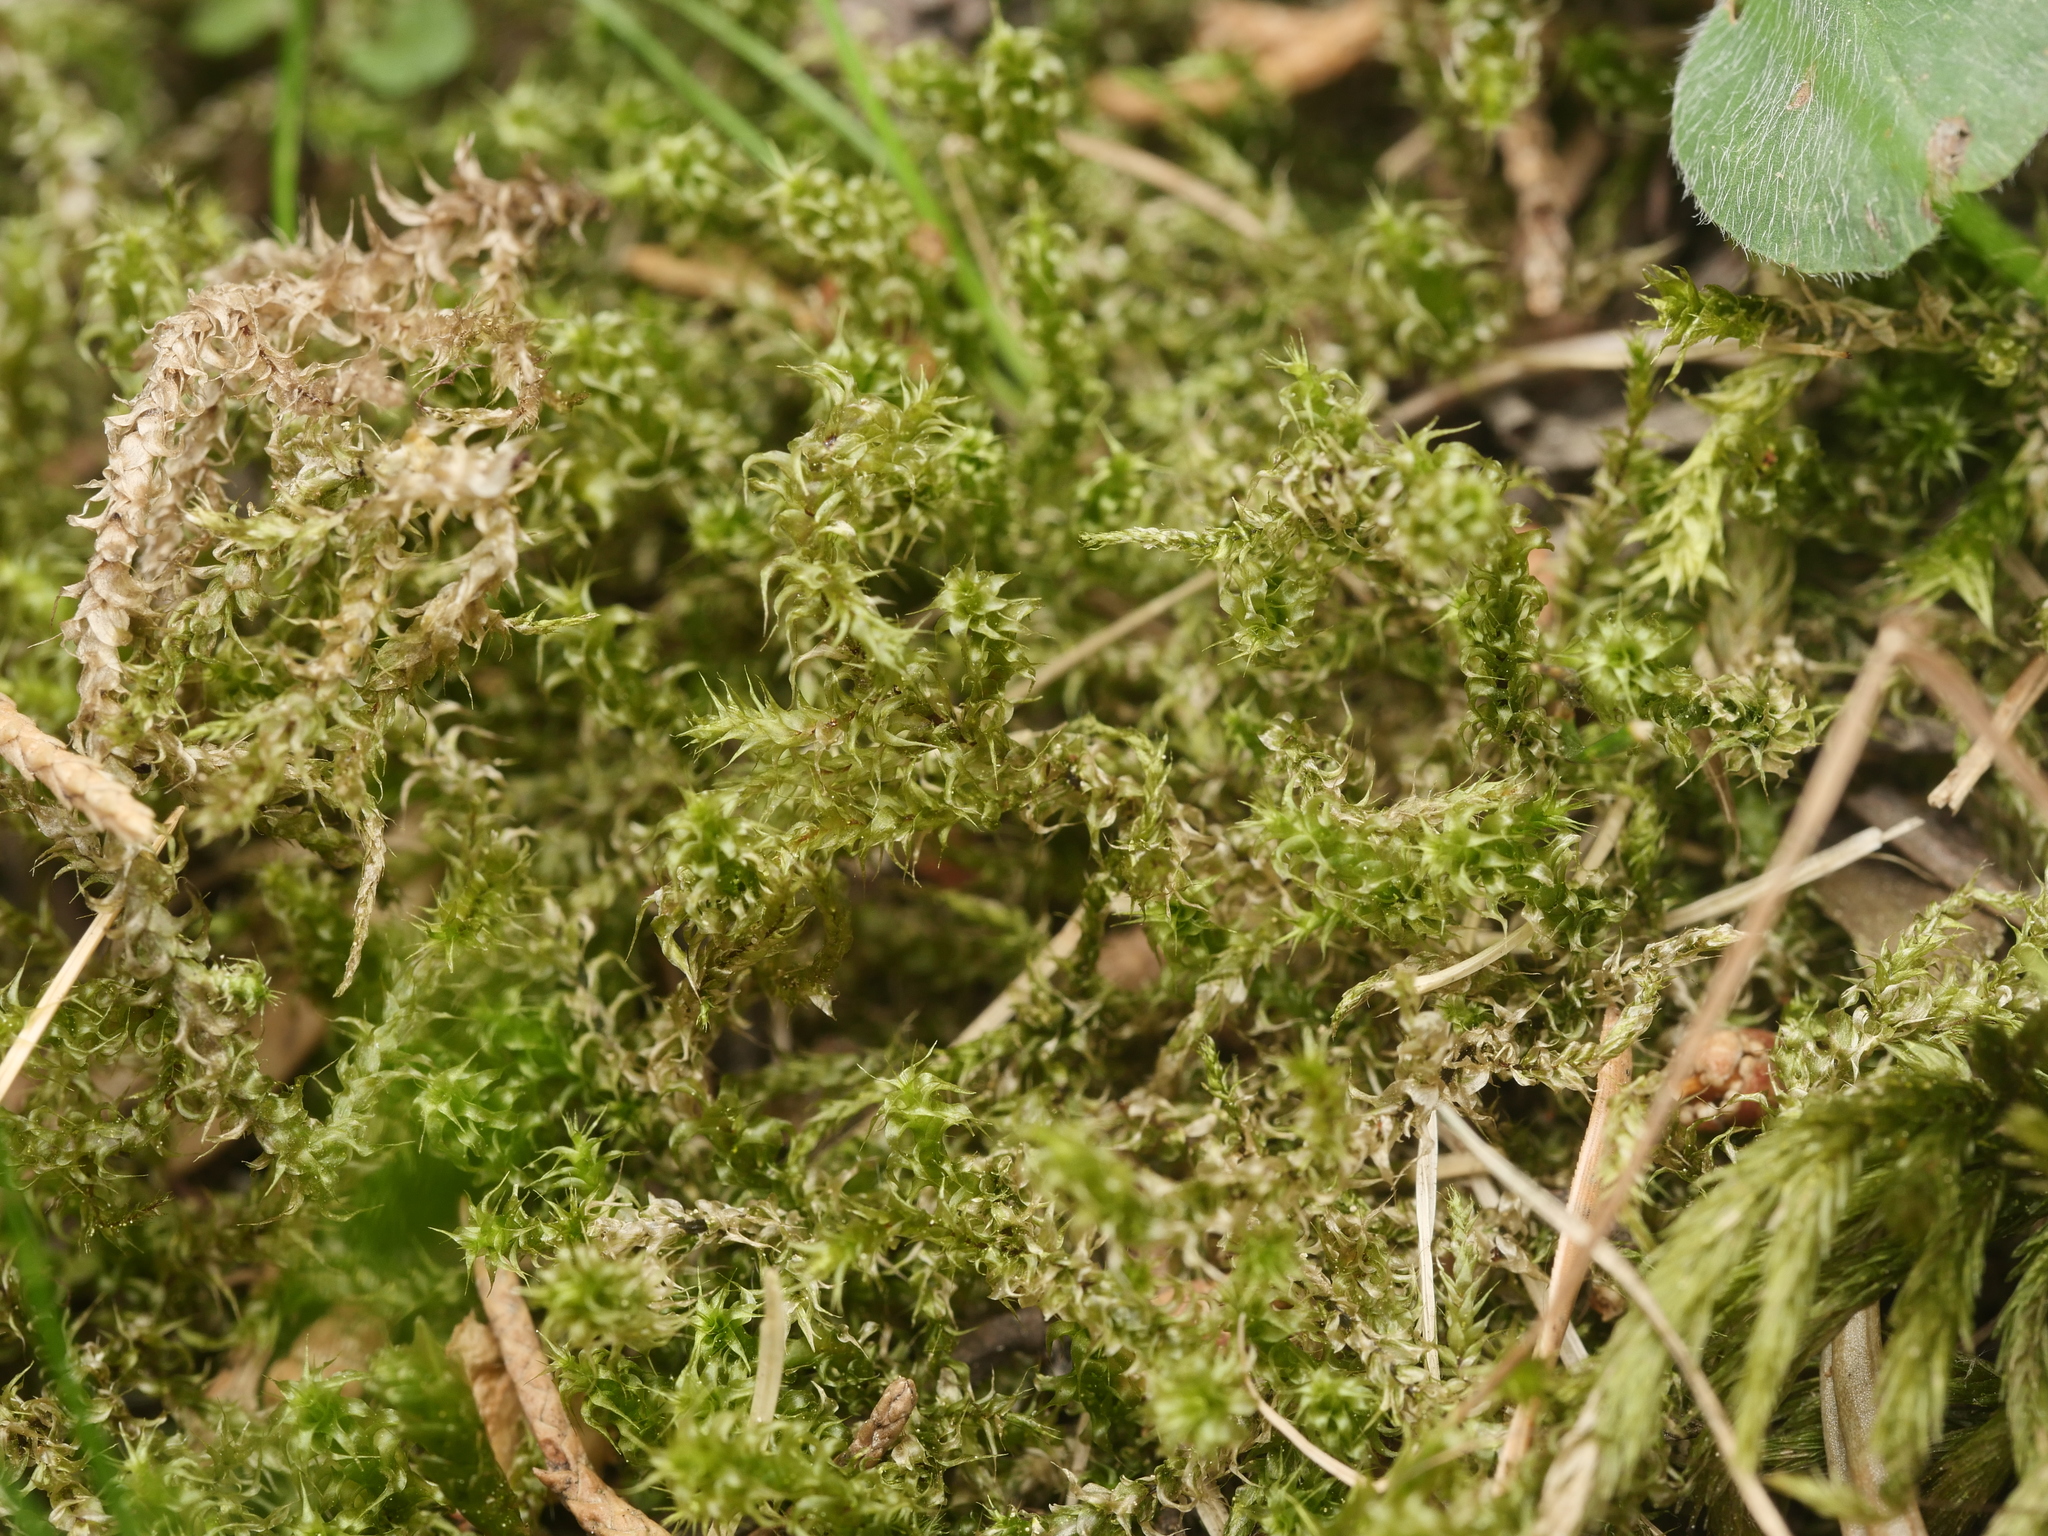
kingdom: Plantae
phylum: Bryophyta
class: Bryopsida
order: Hypnales
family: Hylocomiaceae
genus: Rhytidiadelphus
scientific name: Rhytidiadelphus squarrosus
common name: Springy turf-moss
